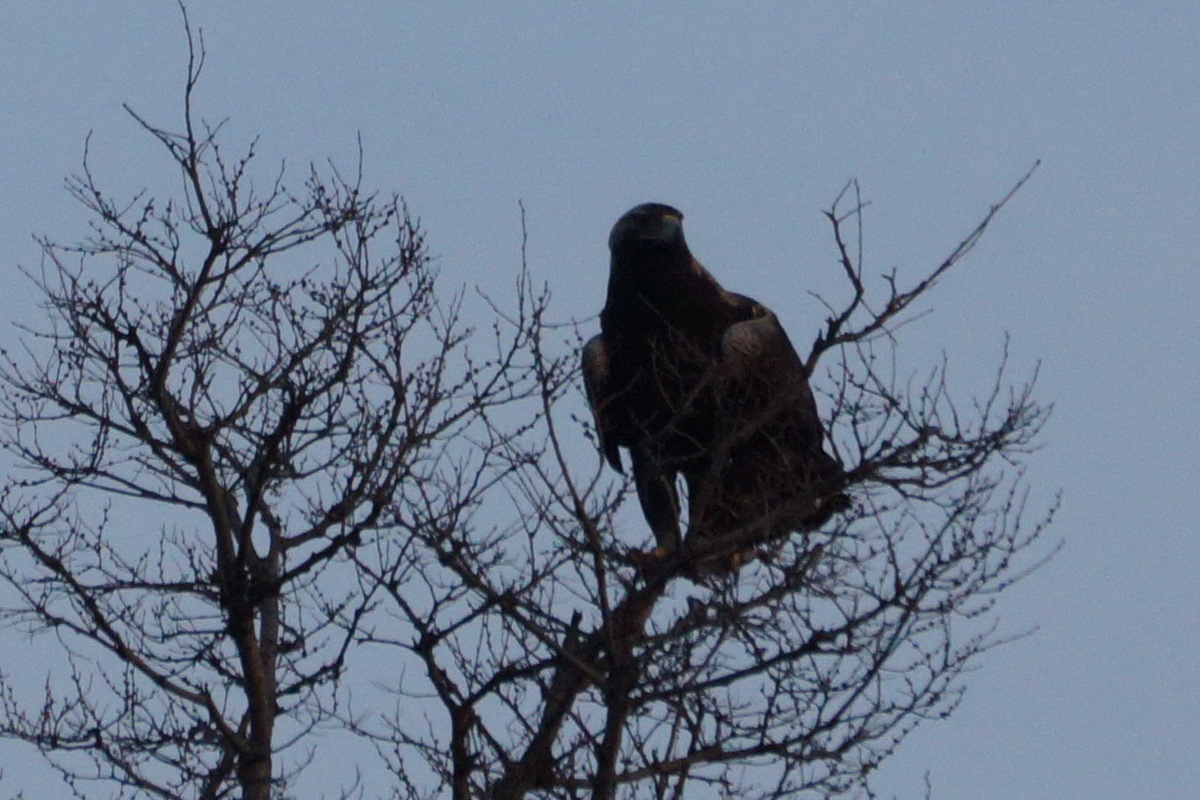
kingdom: Animalia
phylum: Chordata
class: Aves
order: Accipitriformes
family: Accipitridae
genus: Aquila
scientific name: Aquila heliaca
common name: Eastern imperial eagle
